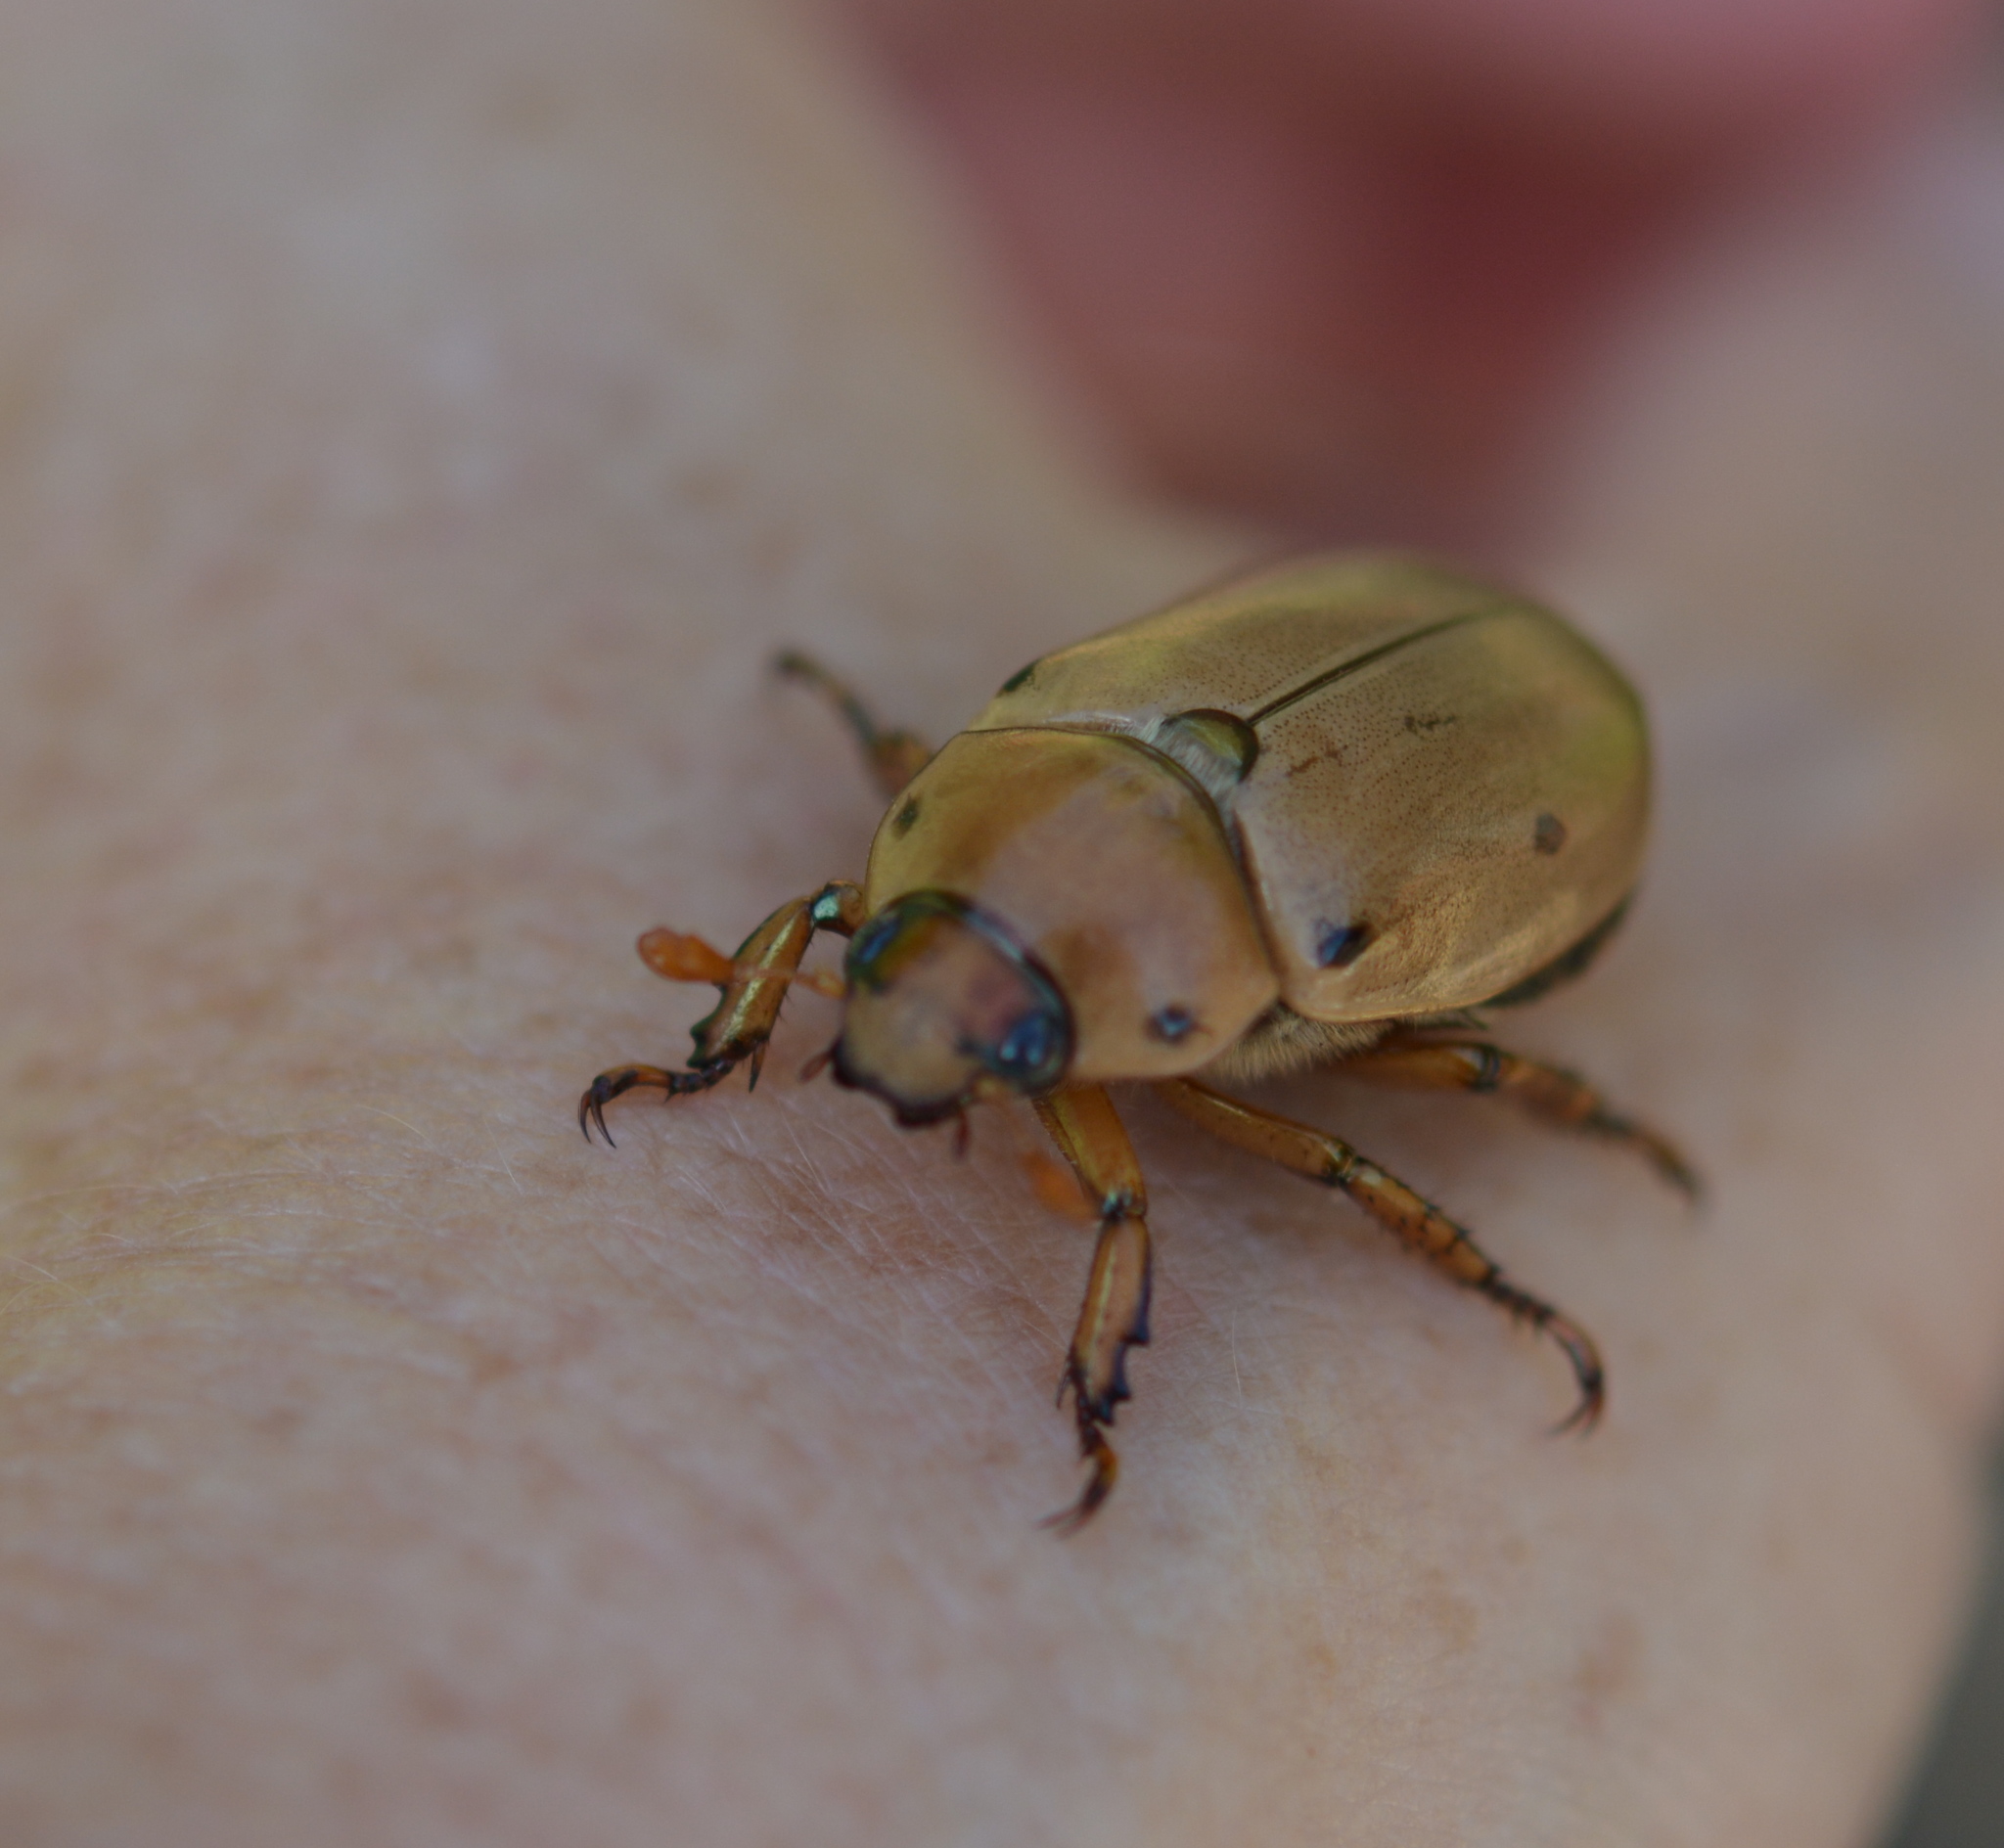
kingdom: Animalia
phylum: Arthropoda
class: Insecta
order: Coleoptera
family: Scarabaeidae
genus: Pelidnota
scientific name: Pelidnota punctata
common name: Grapevine beetle
